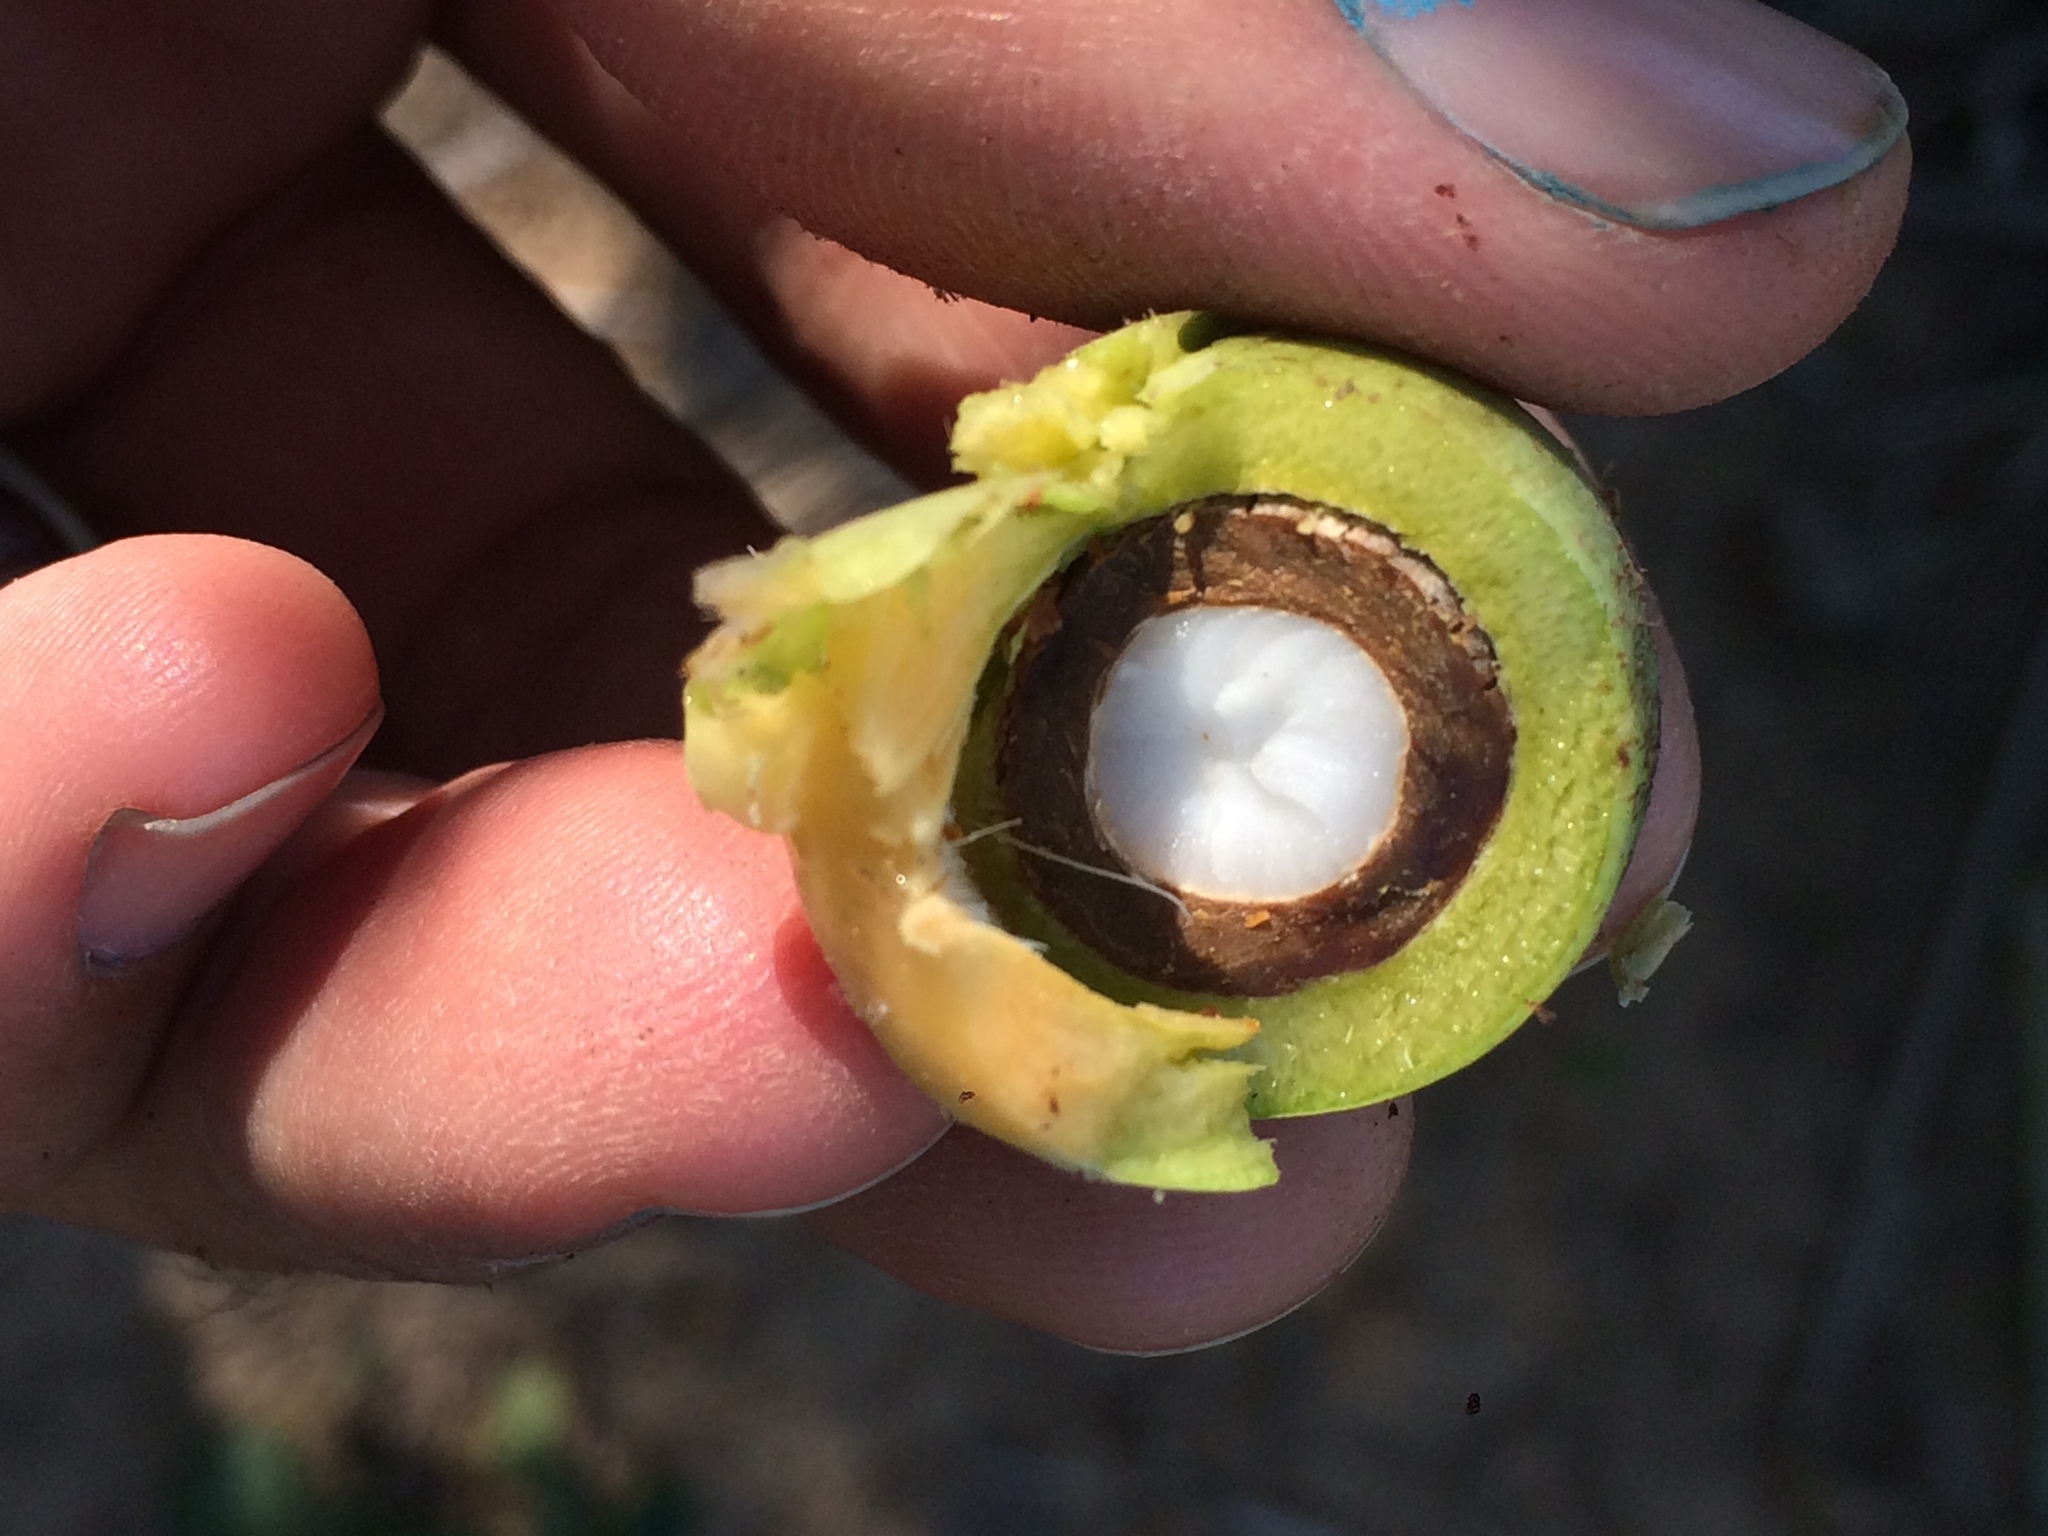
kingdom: Plantae
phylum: Tracheophyta
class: Liliopsida
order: Arecales
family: Arecaceae
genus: Syagrus
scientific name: Syagrus coronata
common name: Licuri palm
